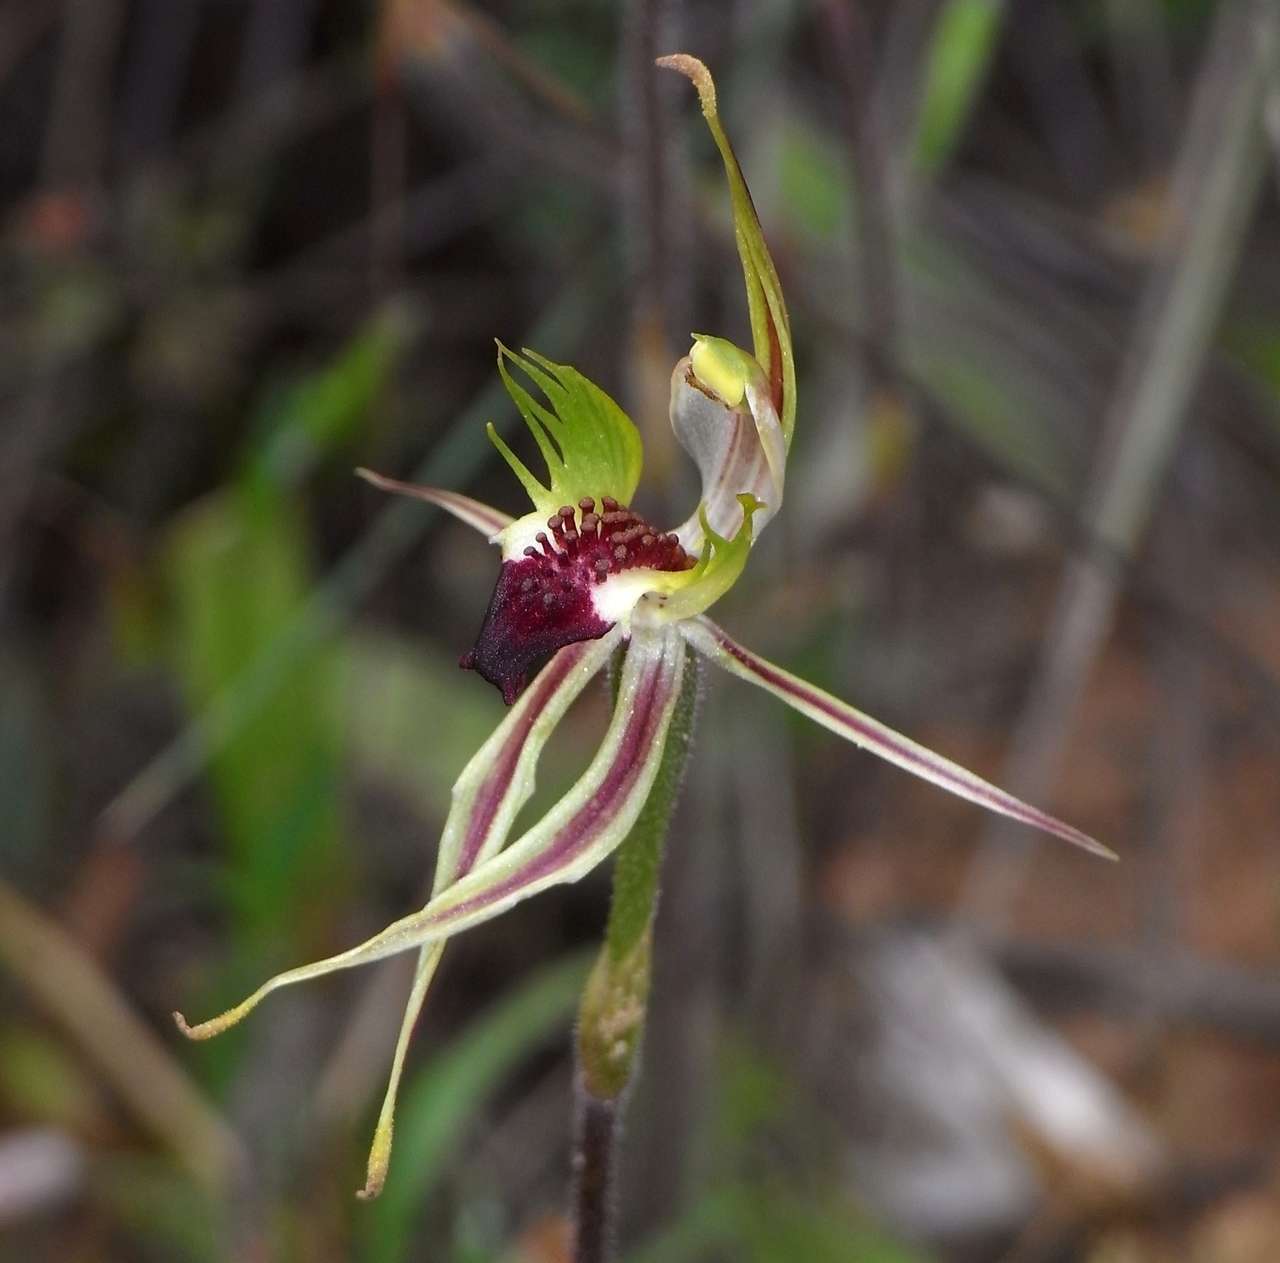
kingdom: Plantae
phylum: Tracheophyta
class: Liliopsida
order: Asparagales
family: Orchidaceae
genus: Caladenia
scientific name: Caladenia verrucosa
